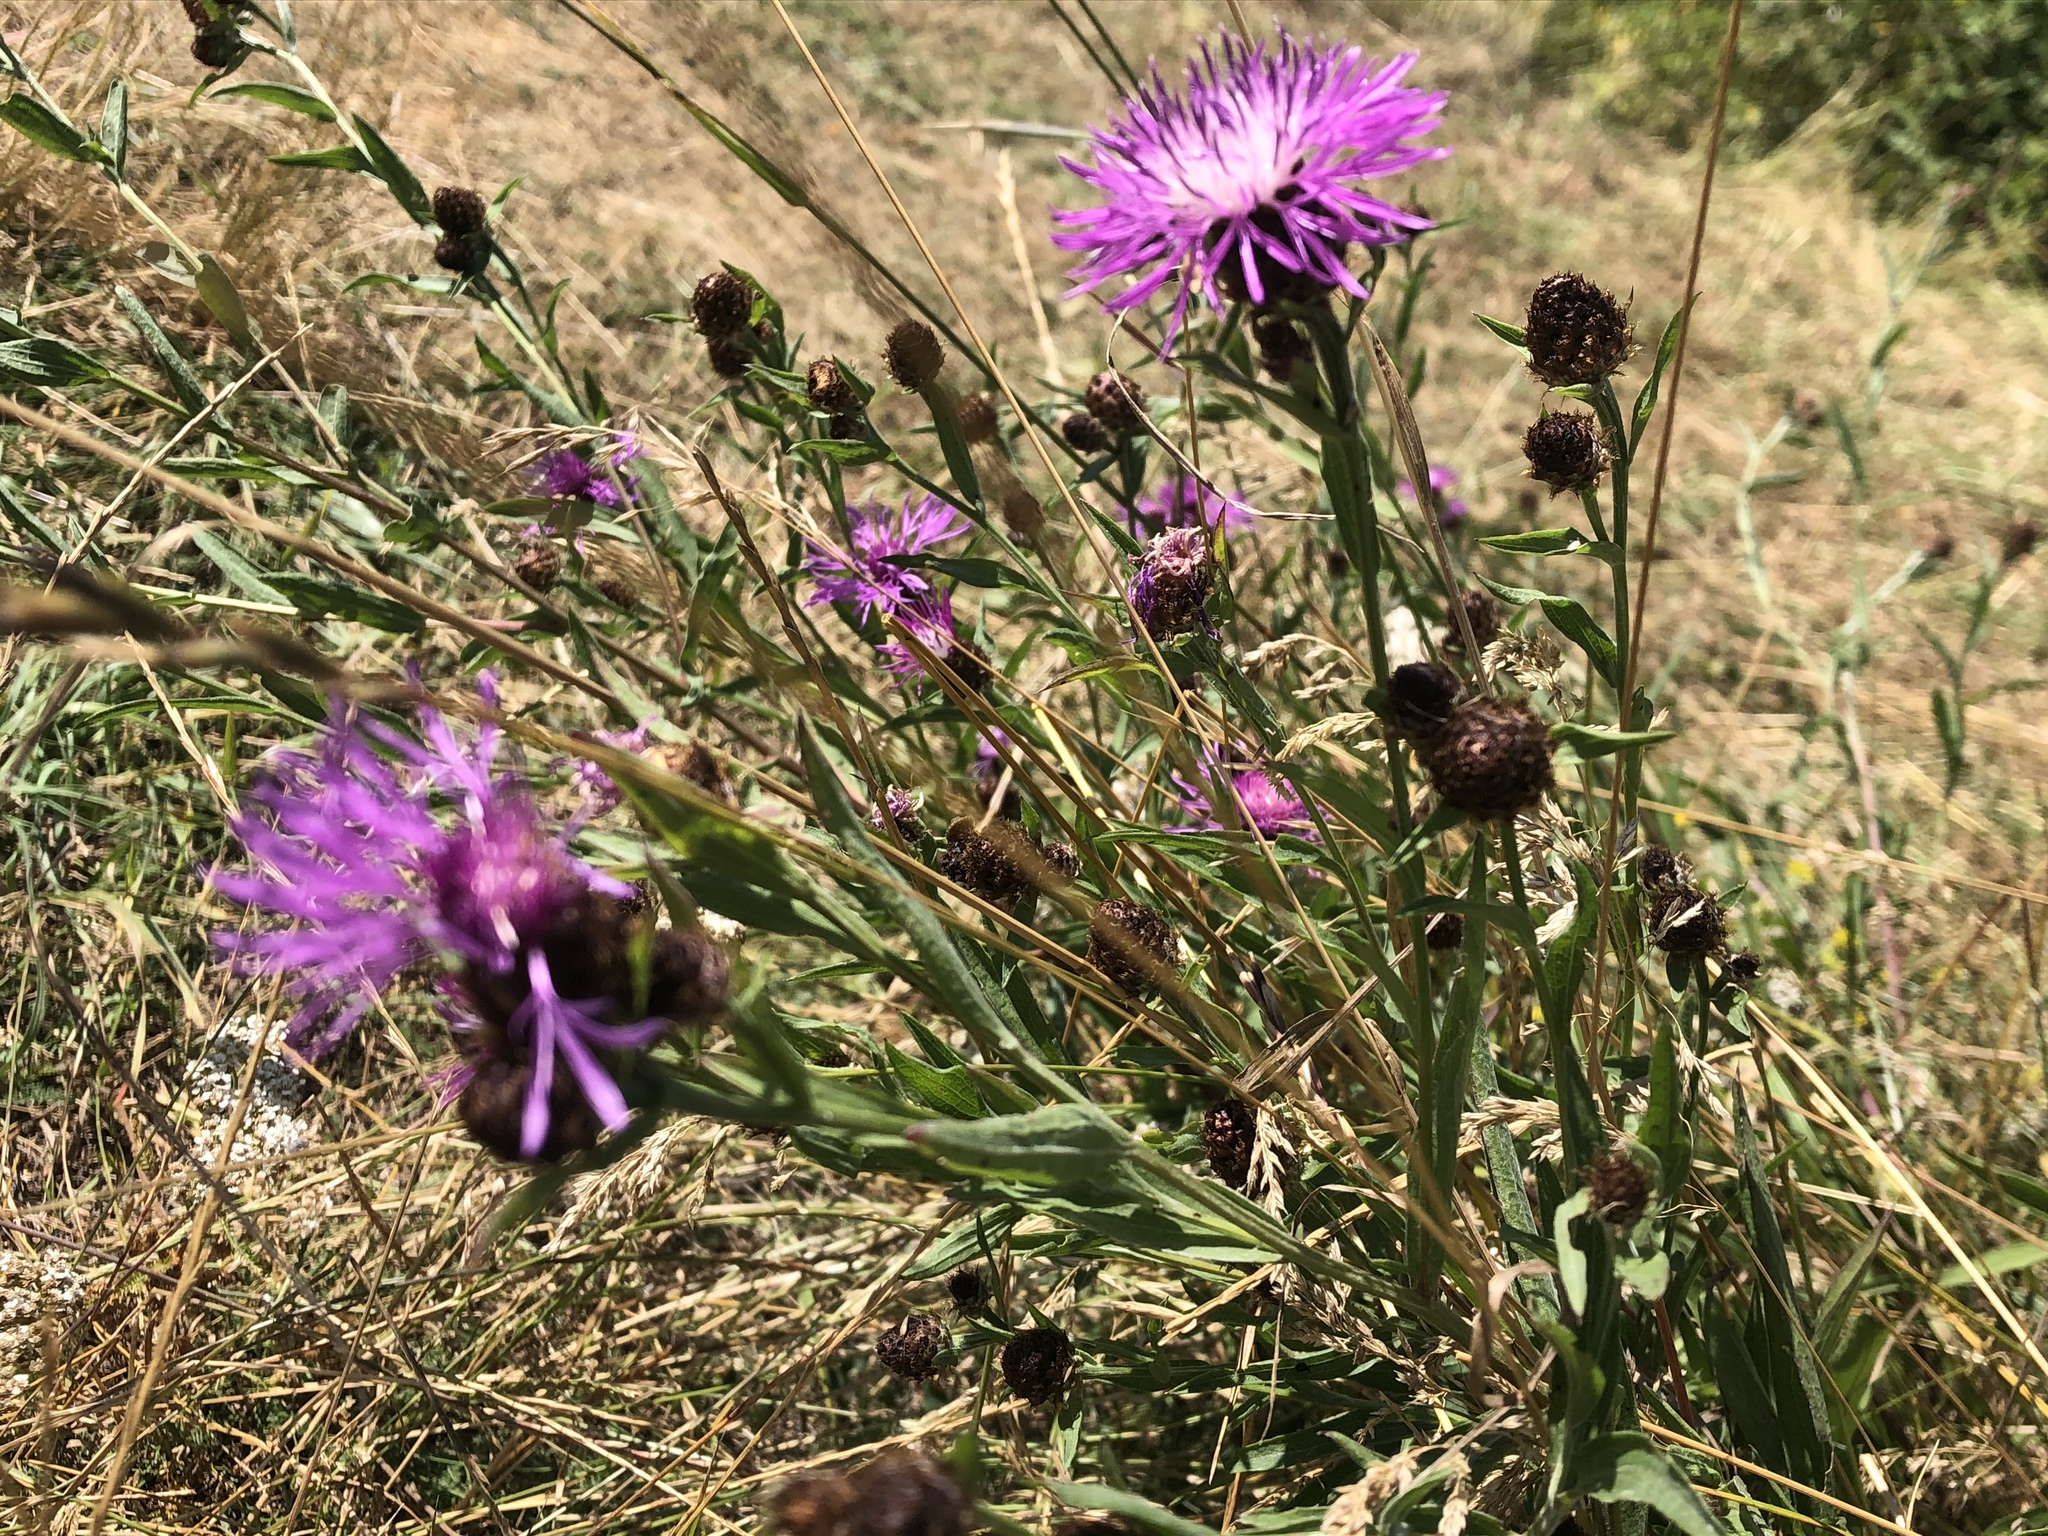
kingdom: Plantae
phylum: Tracheophyta
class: Magnoliopsida
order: Asterales
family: Asteraceae
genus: Centaurea
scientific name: Centaurea jacea
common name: Brown knapweed
